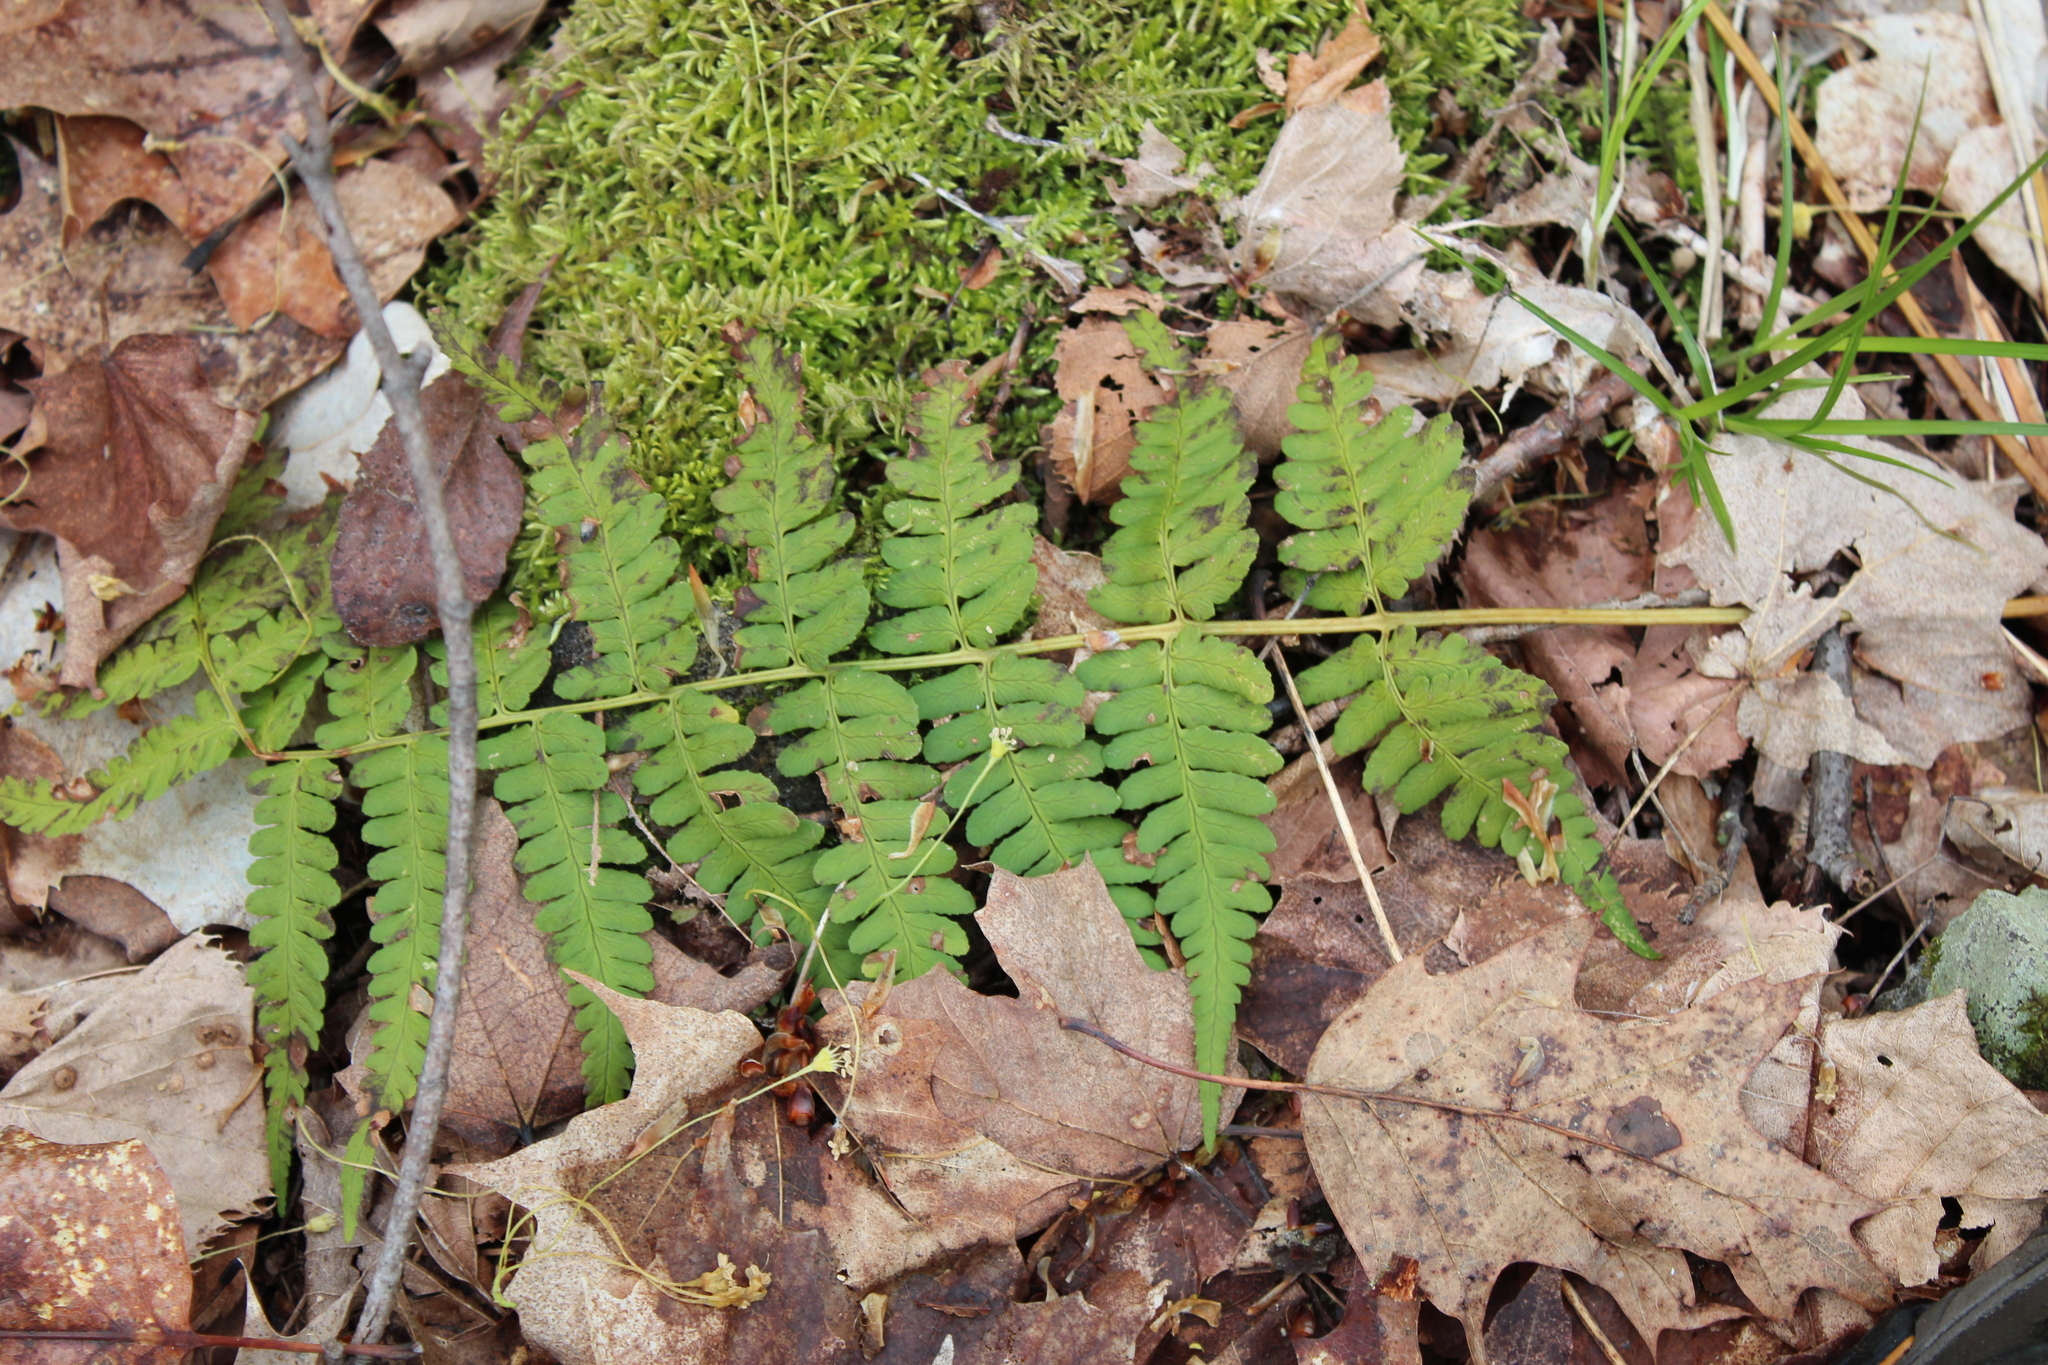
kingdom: Plantae
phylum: Tracheophyta
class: Polypodiopsida
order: Polypodiales
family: Dryopteridaceae
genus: Dryopteris
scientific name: Dryopteris marginalis
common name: Marginal wood fern
